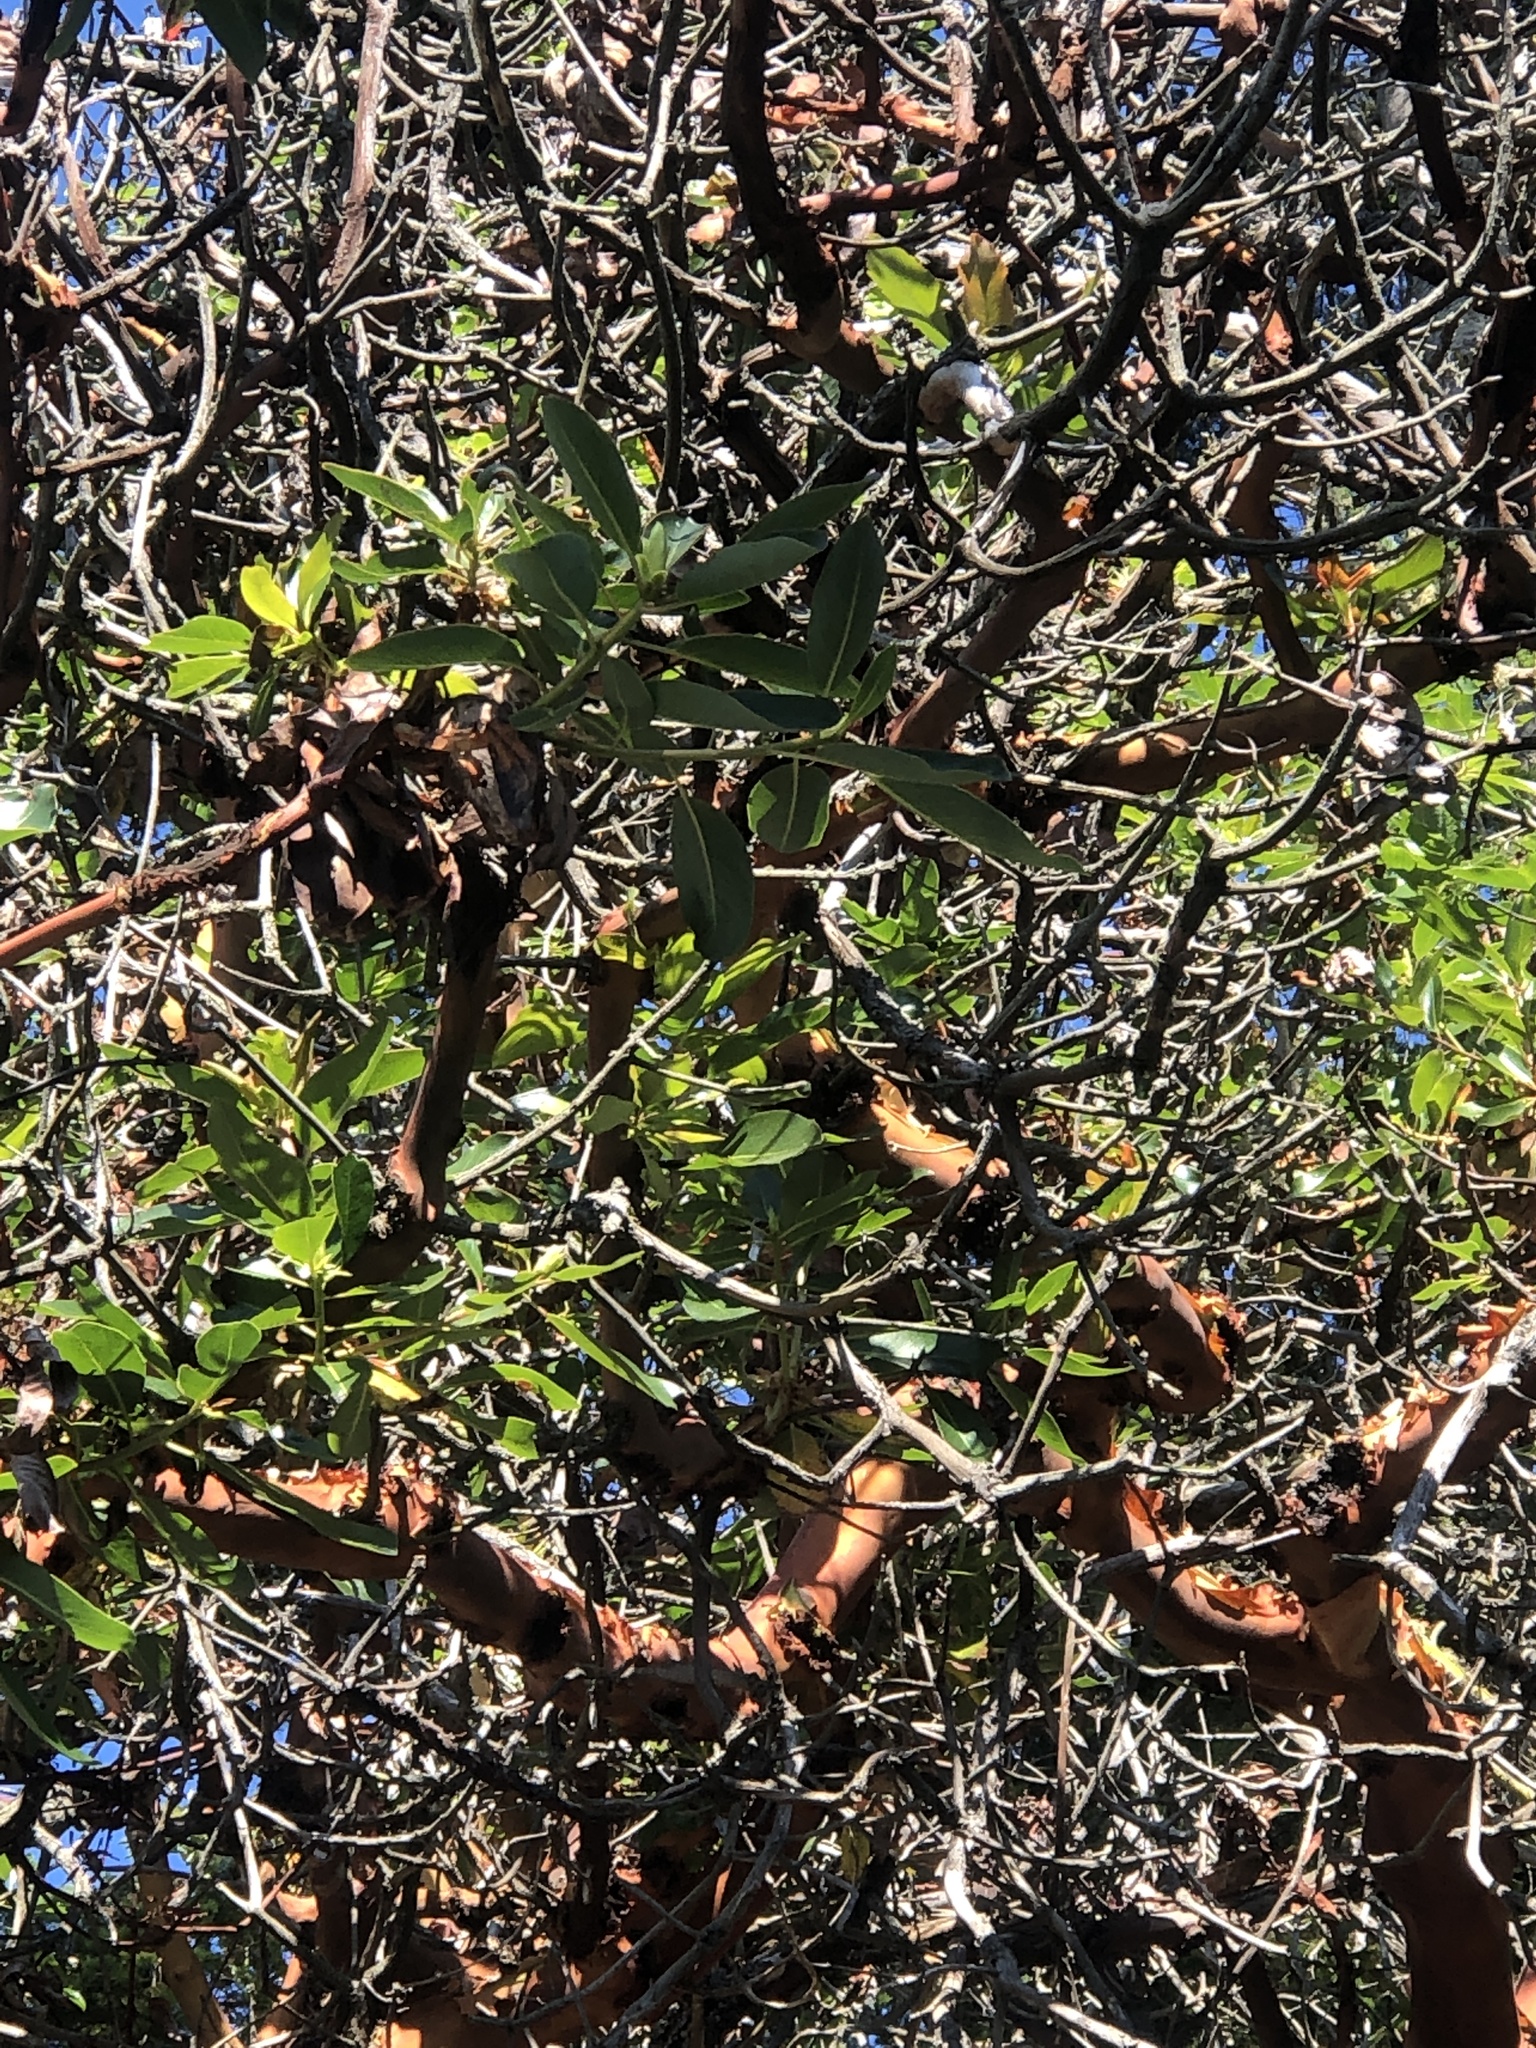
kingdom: Plantae
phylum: Tracheophyta
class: Magnoliopsida
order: Ericales
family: Ericaceae
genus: Arbutus
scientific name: Arbutus menziesii
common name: Pacific madrone
